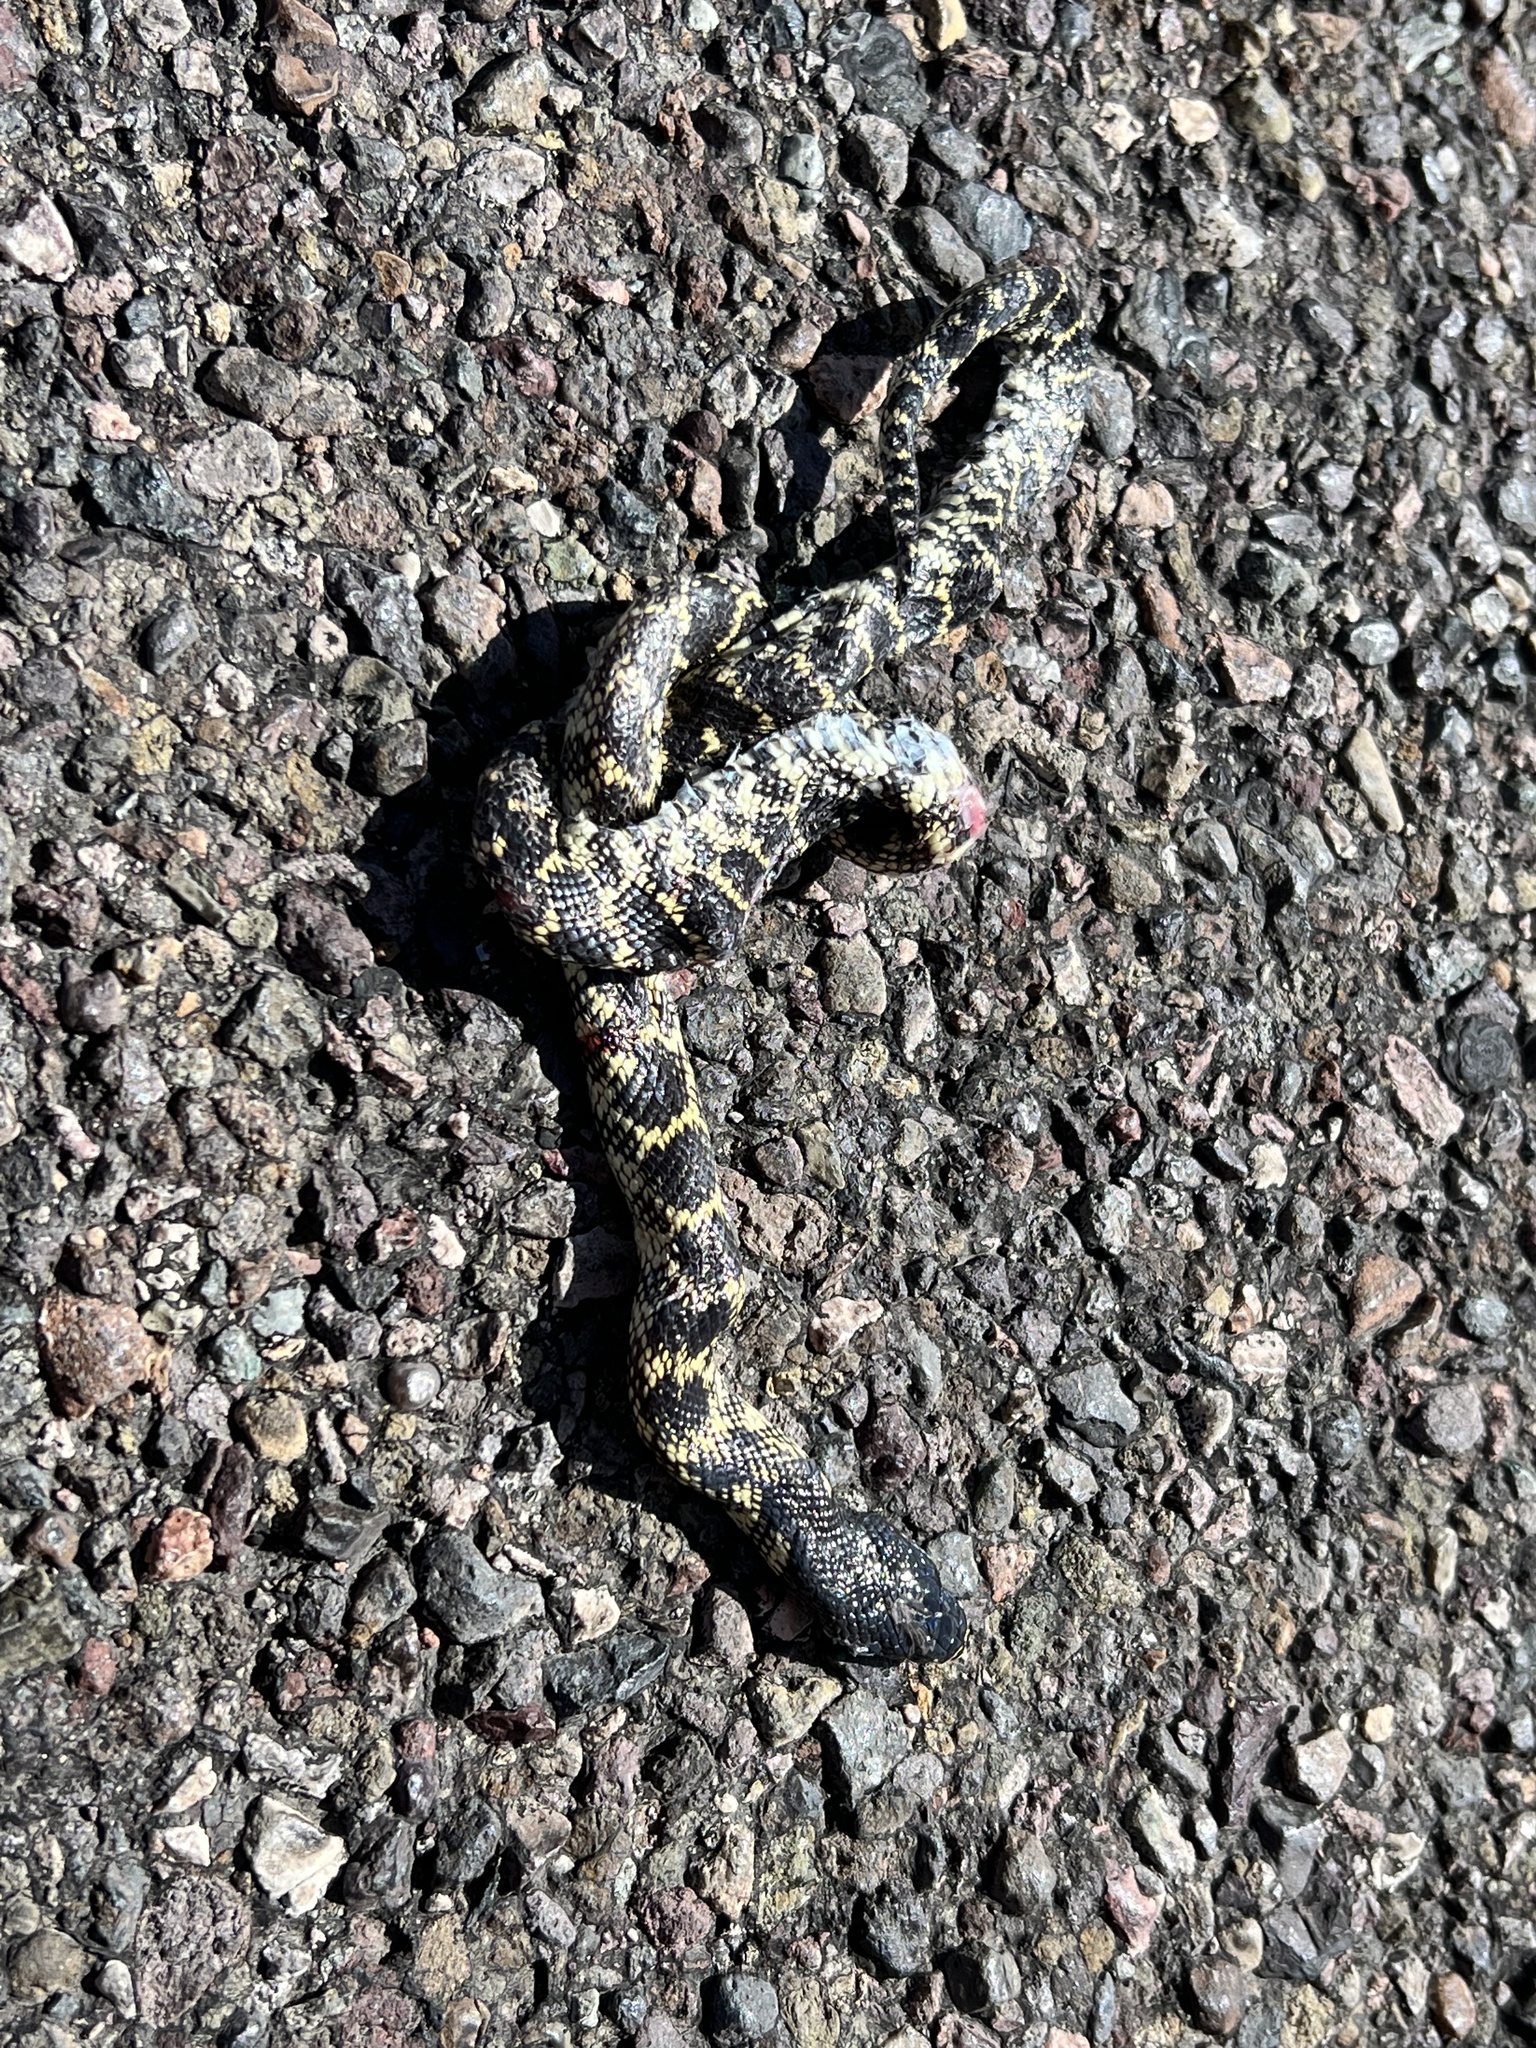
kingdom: Animalia
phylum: Chordata
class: Squamata
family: Colubridae
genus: Lampropeltis
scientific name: Lampropeltis splendida
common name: Desert kingsnake
